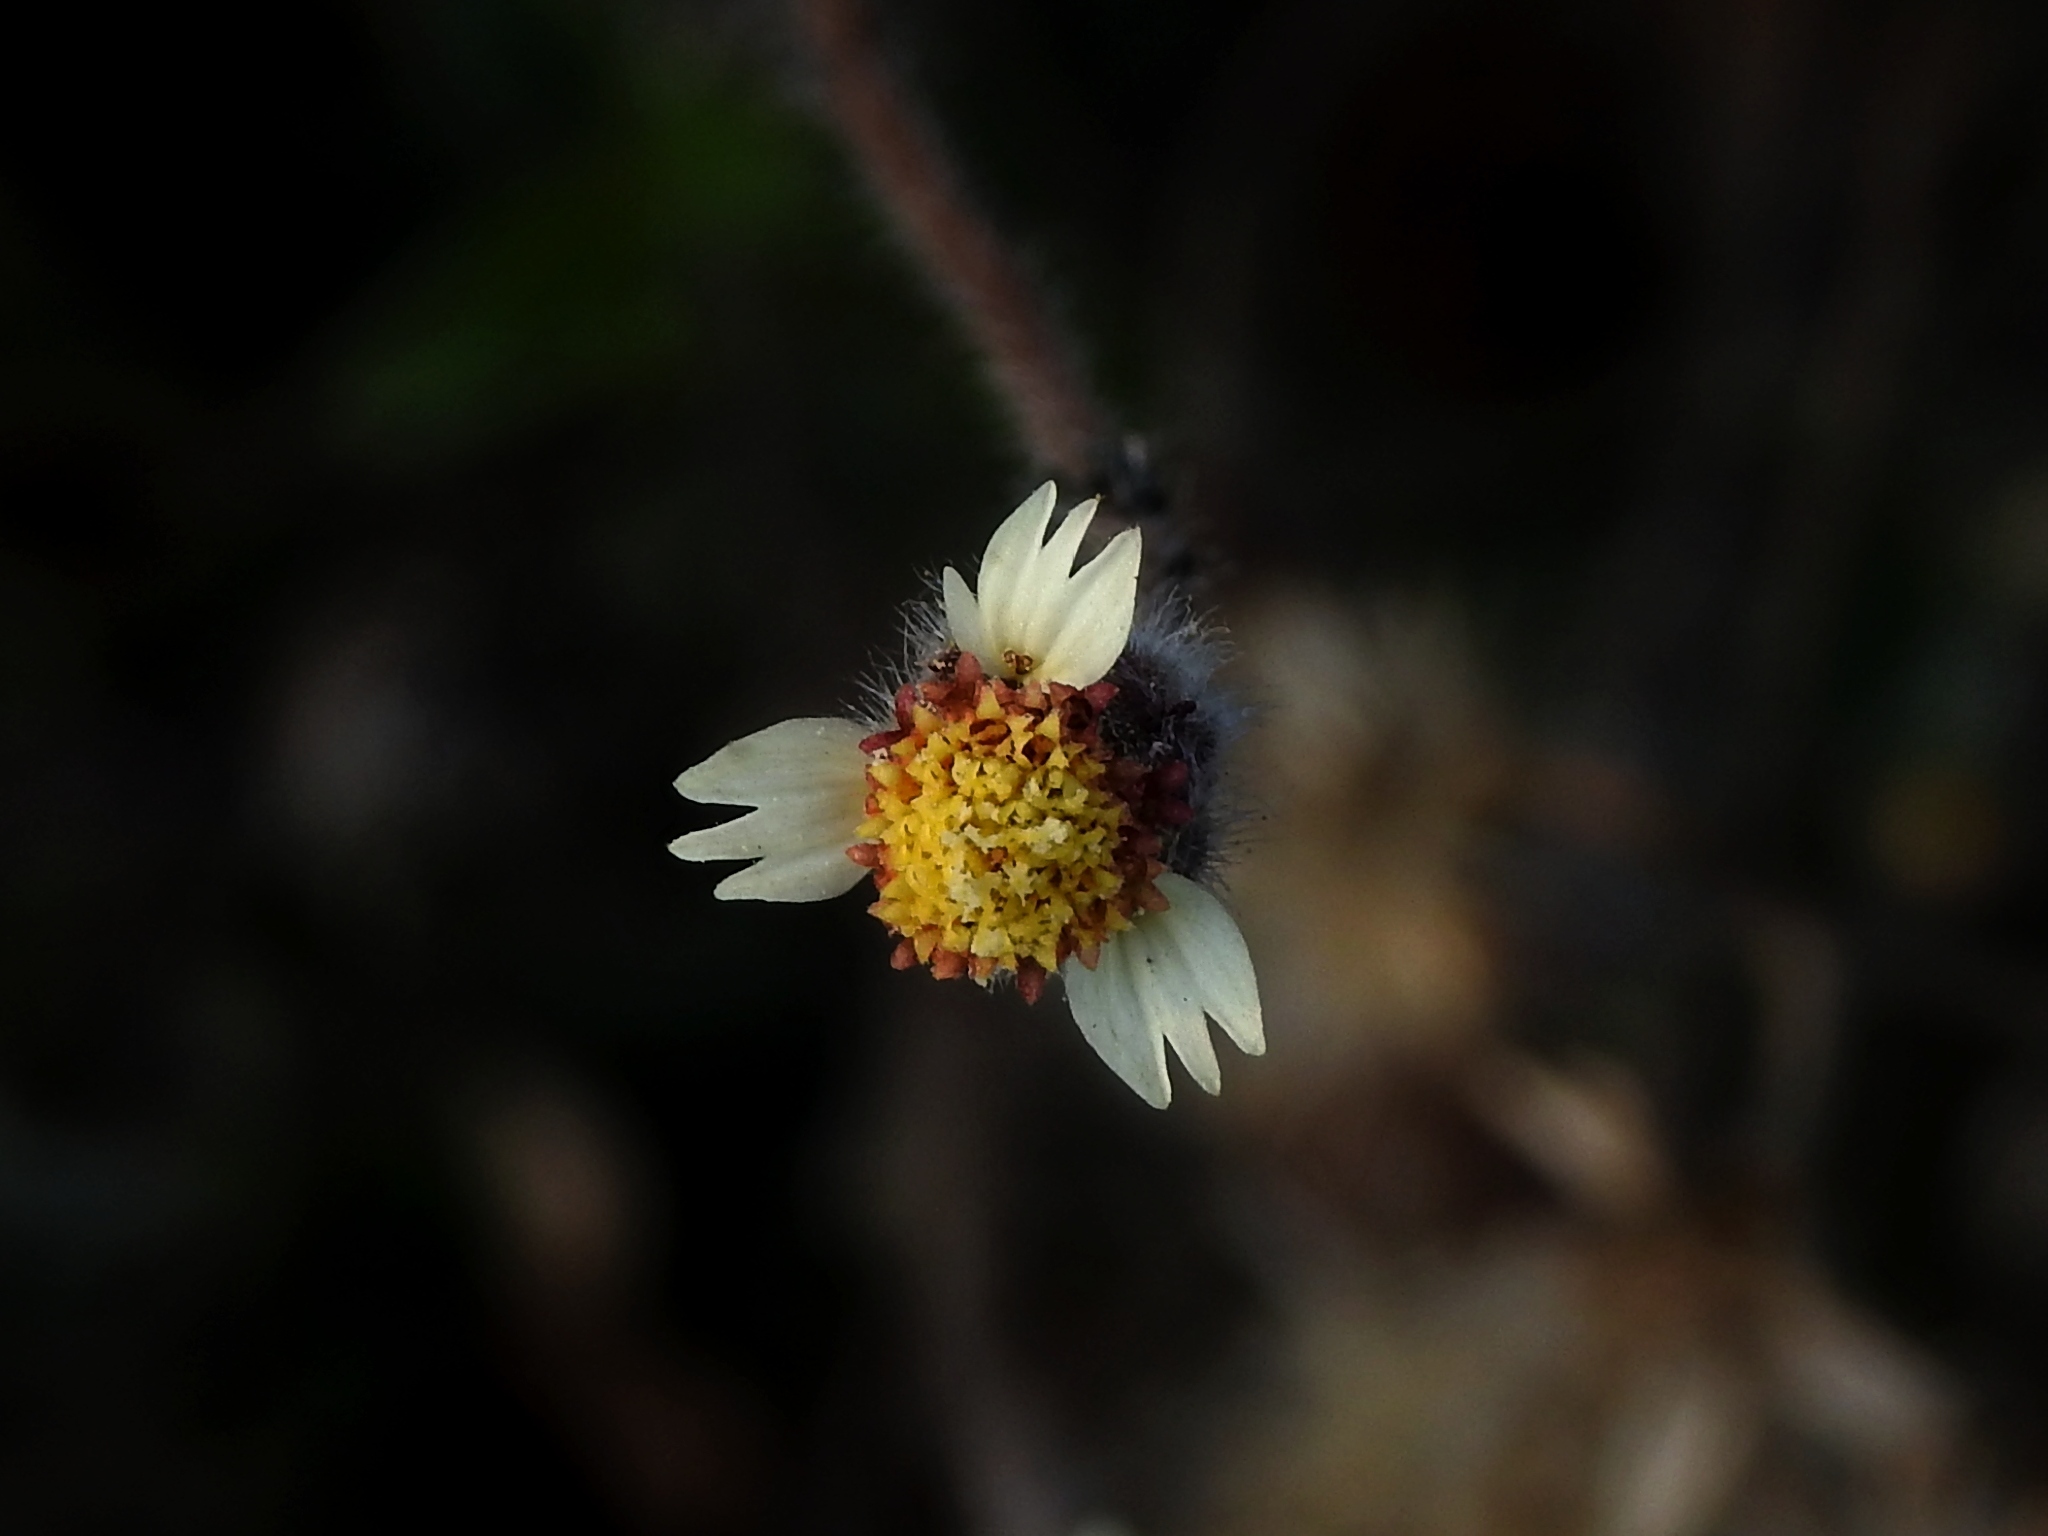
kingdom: Plantae
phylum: Tracheophyta
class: Magnoliopsida
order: Asterales
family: Asteraceae
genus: Tridax
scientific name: Tridax procumbens
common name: Coatbuttons
